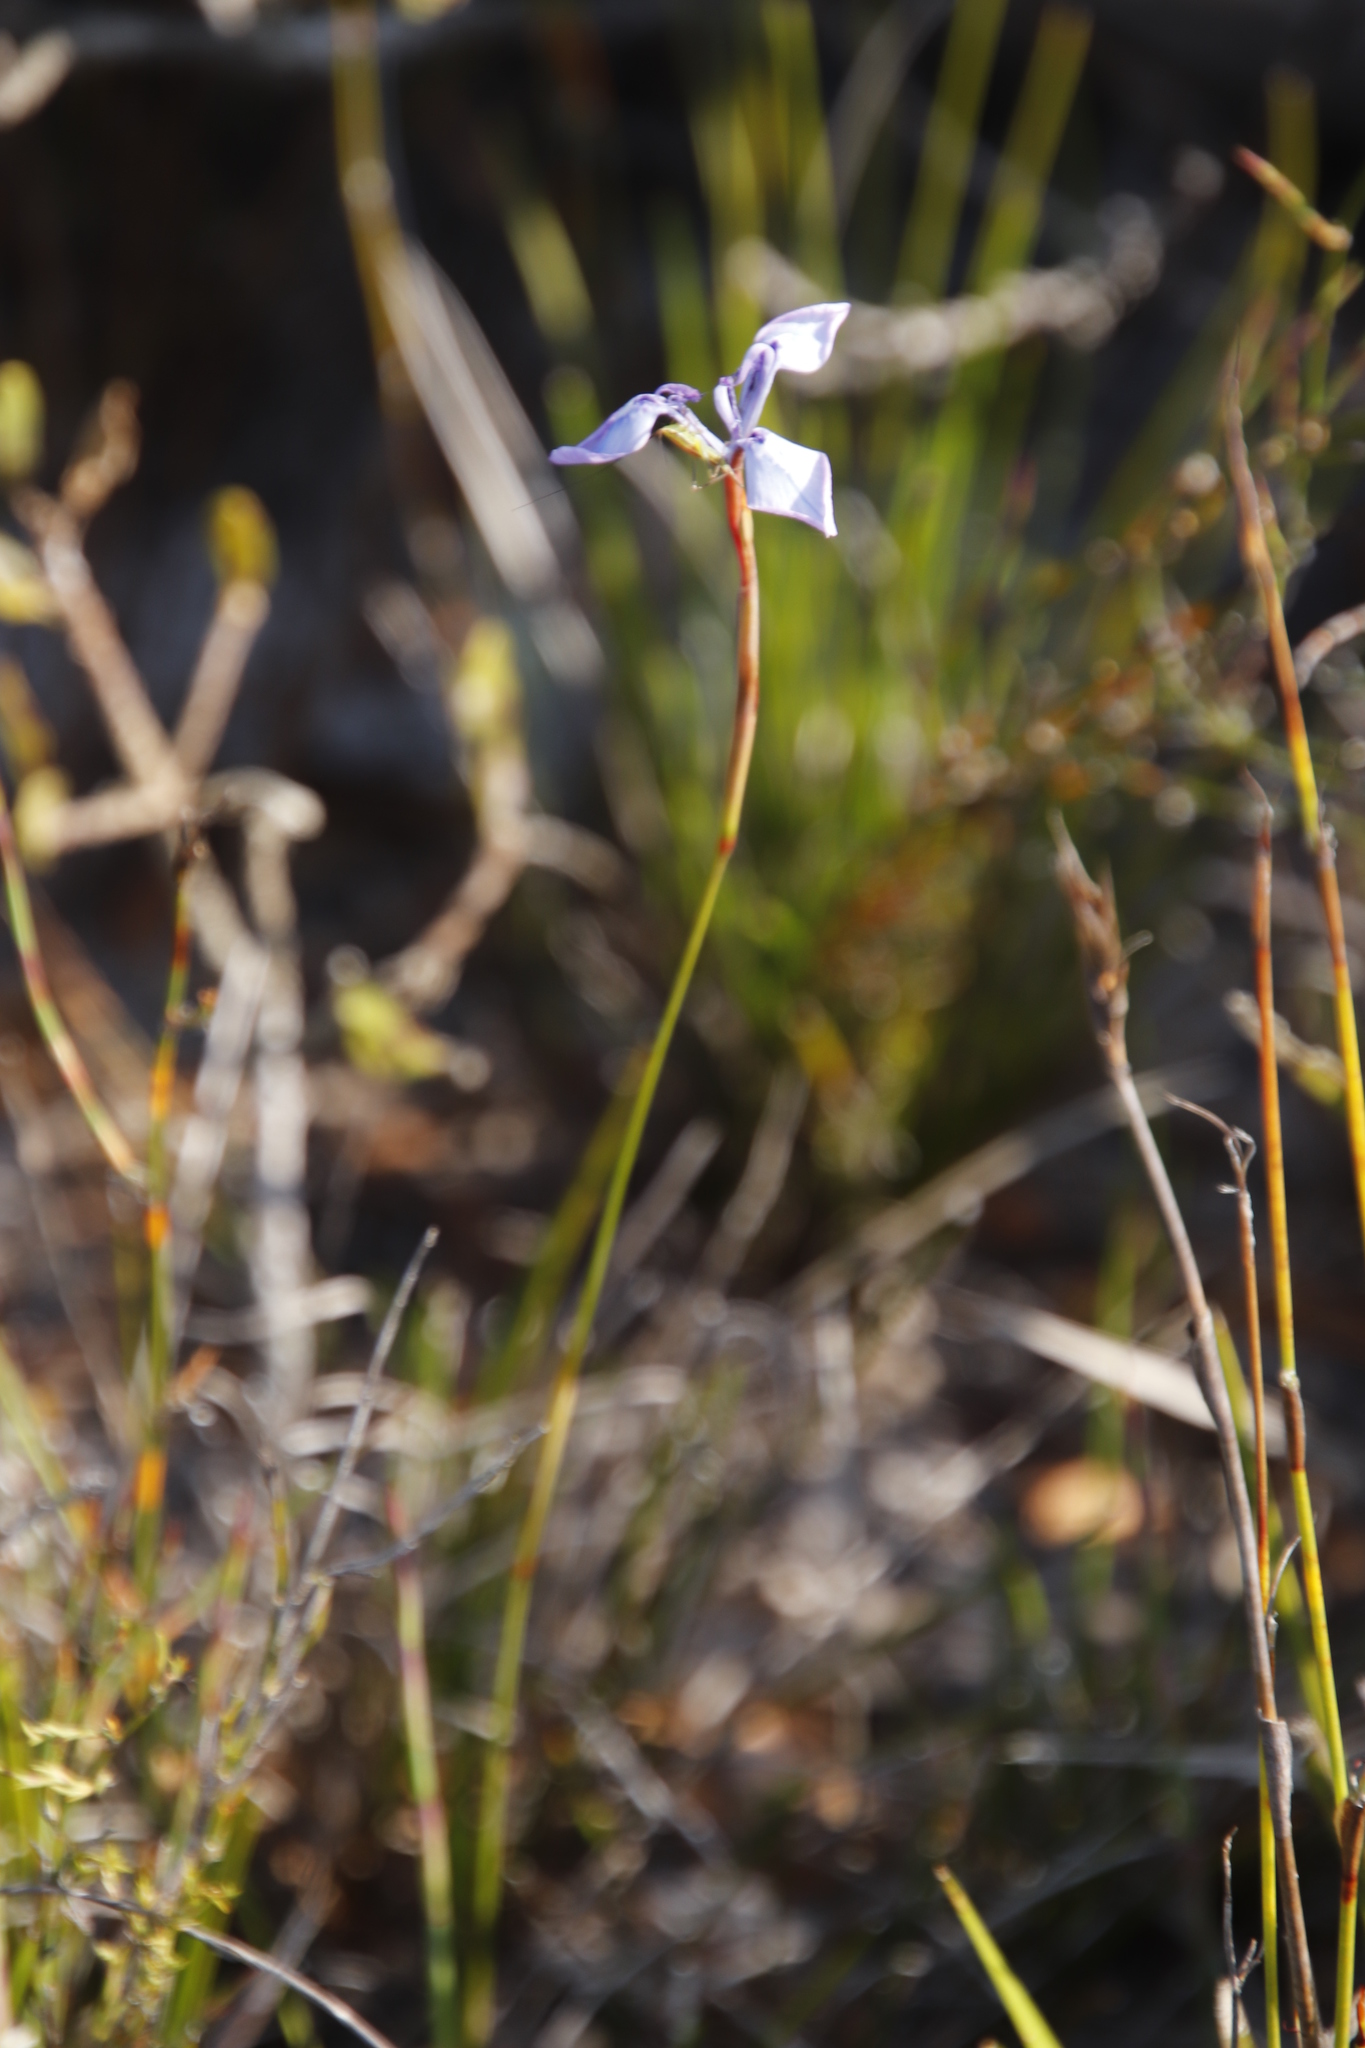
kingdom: Plantae
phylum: Tracheophyta
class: Liliopsida
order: Asparagales
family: Iridaceae
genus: Moraea
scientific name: Moraea tripetala
